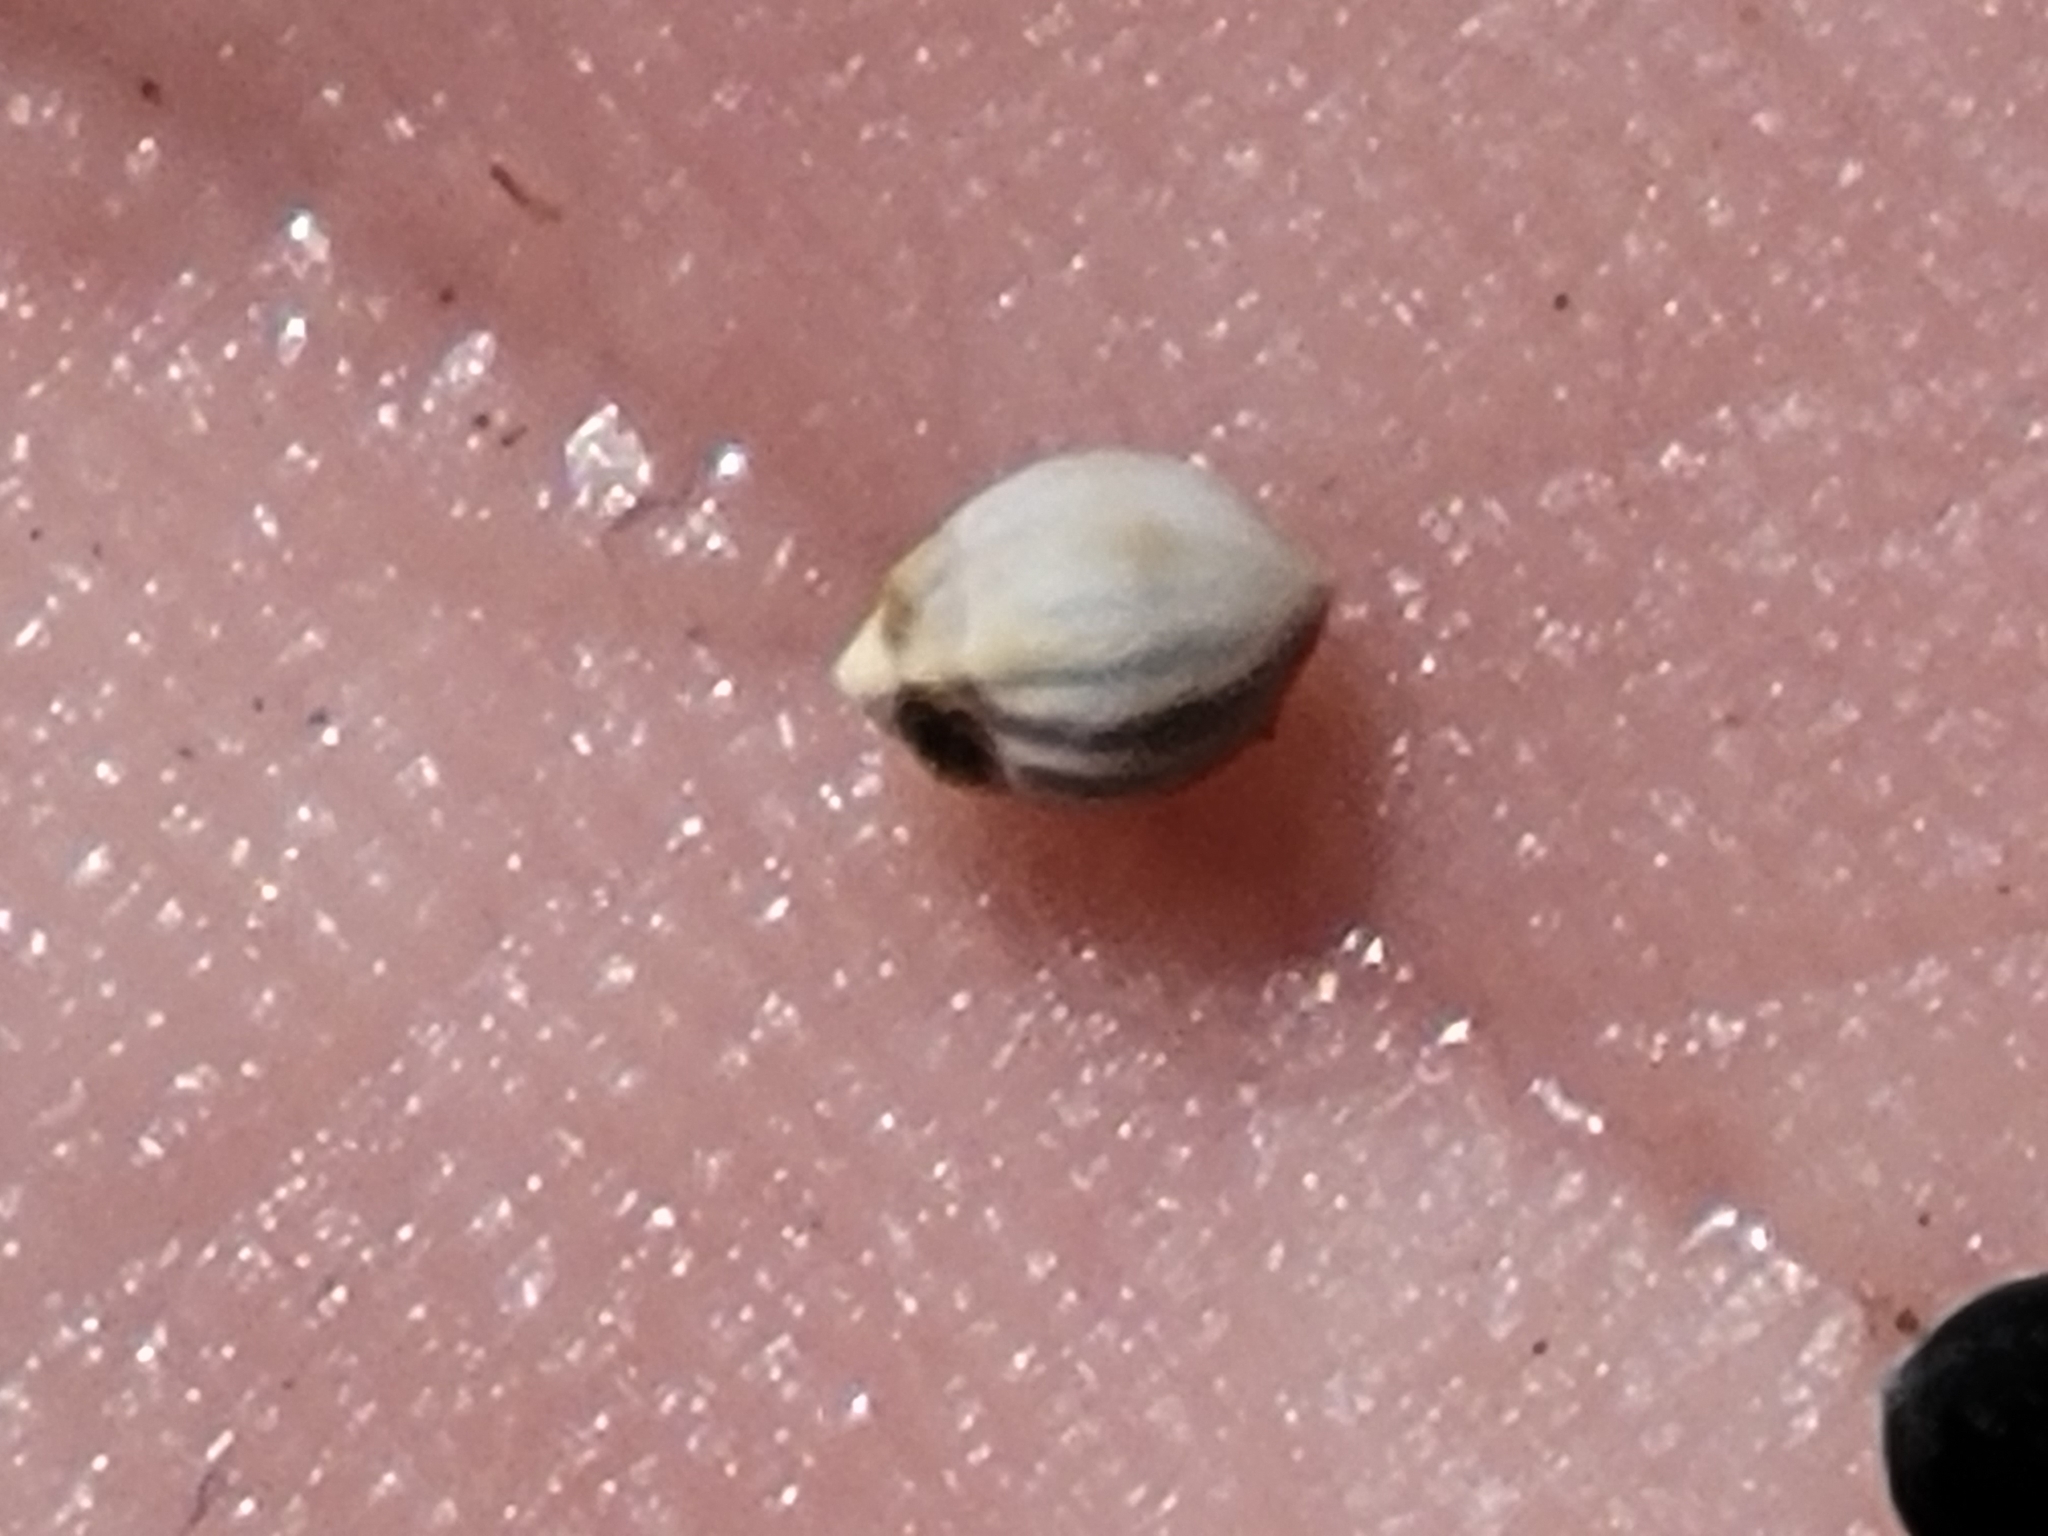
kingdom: Plantae
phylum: Tracheophyta
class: Liliopsida
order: Poales
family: Cyperaceae
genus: Scleria
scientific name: Scleria georgiana
